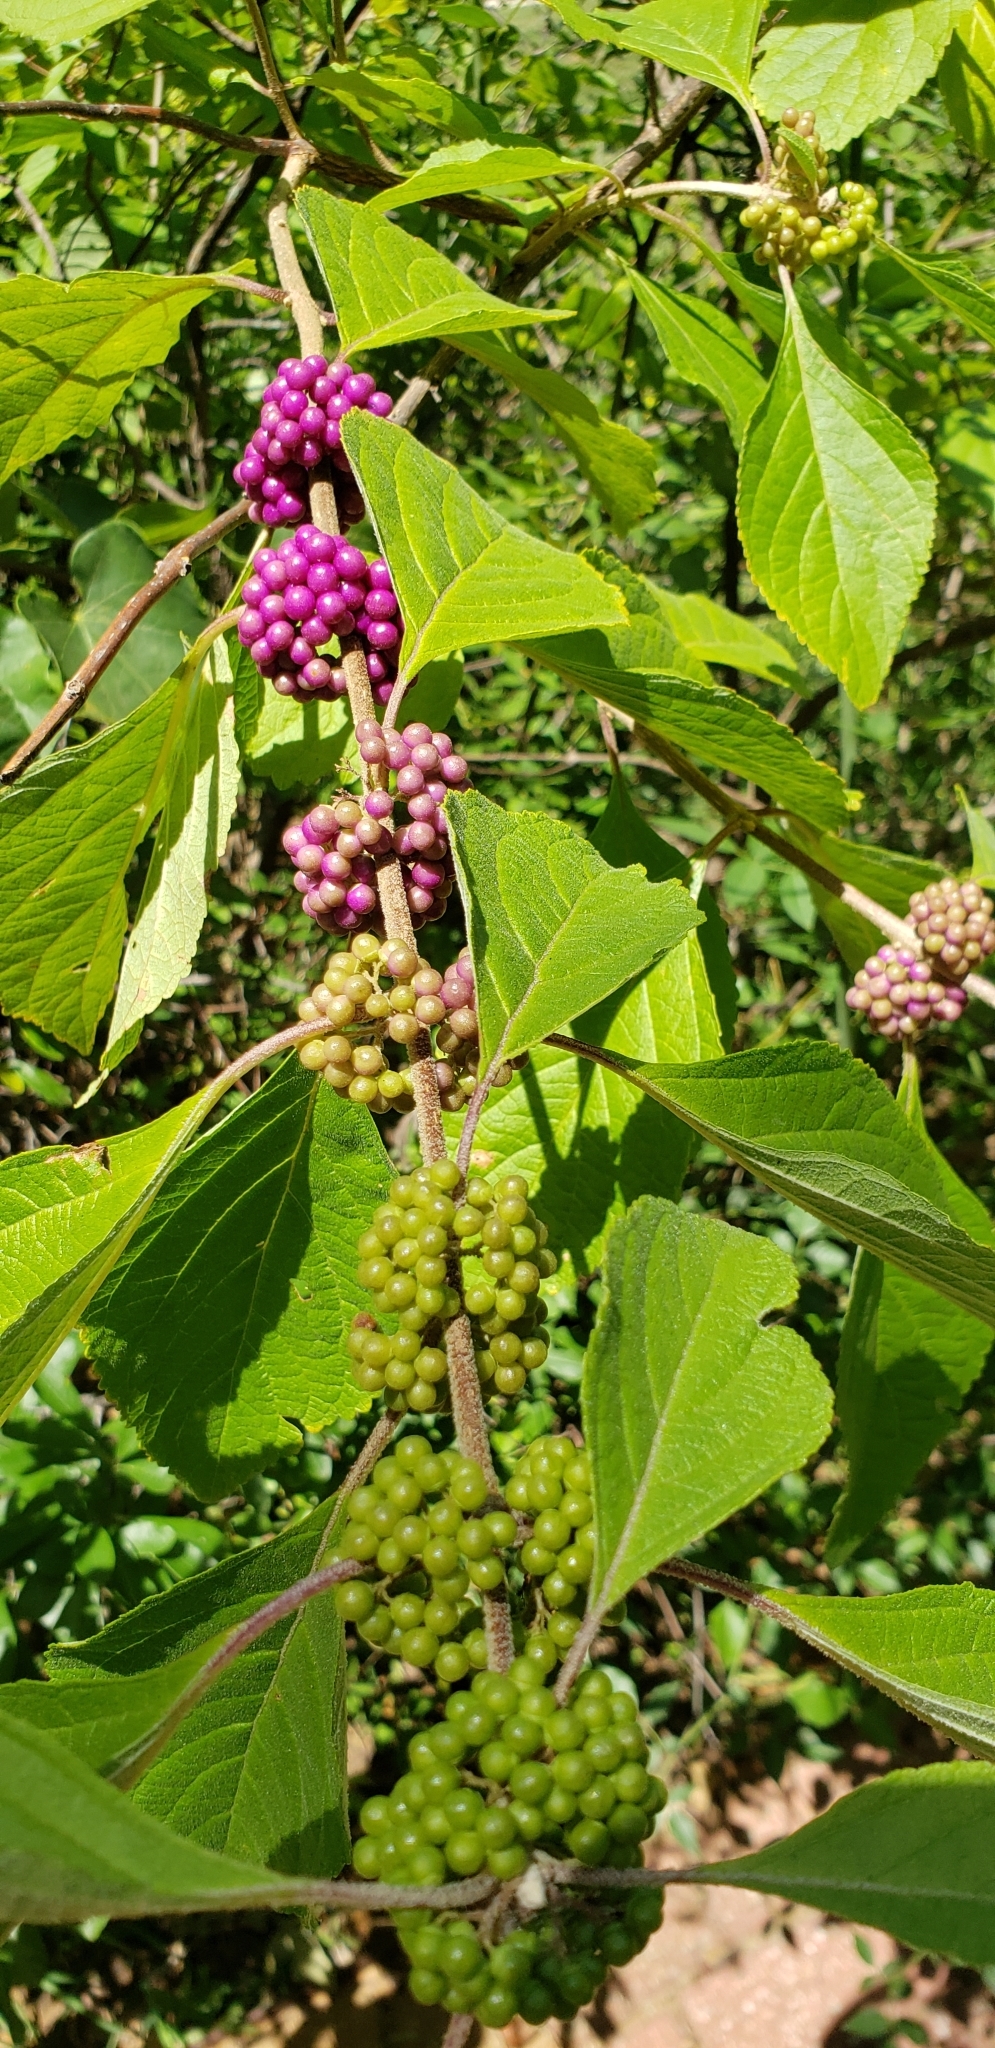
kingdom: Plantae
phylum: Tracheophyta
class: Magnoliopsida
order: Lamiales
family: Lamiaceae
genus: Callicarpa
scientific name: Callicarpa americana
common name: American beautyberry
